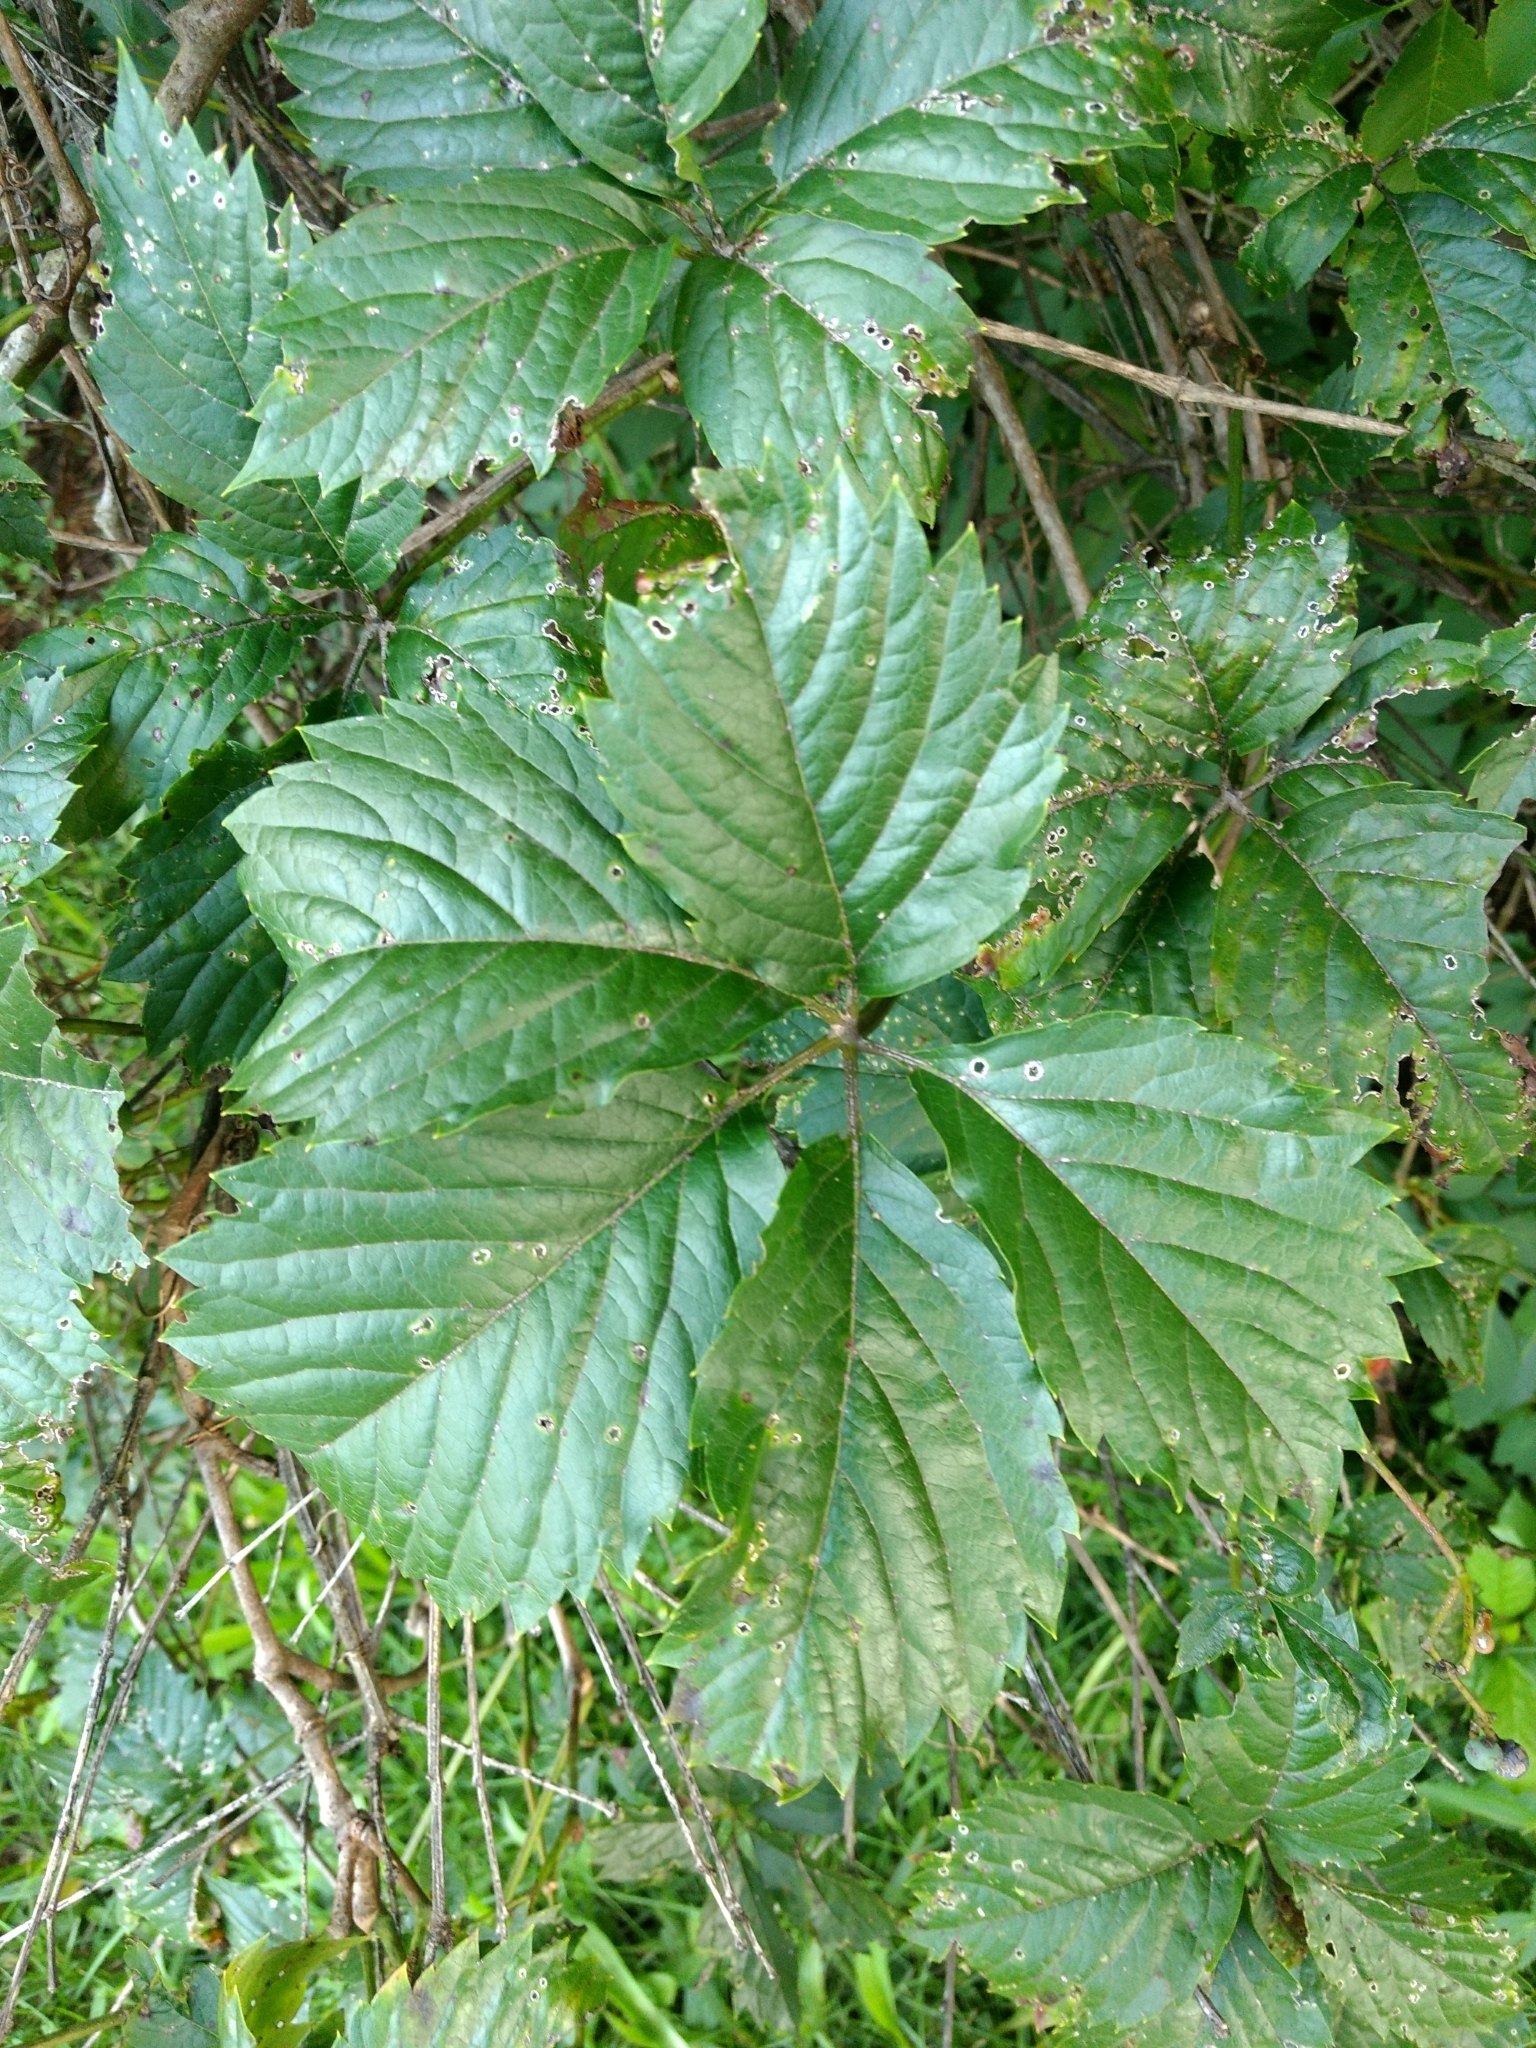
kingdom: Plantae
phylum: Tracheophyta
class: Magnoliopsida
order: Vitales
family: Vitaceae
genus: Parthenocissus
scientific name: Parthenocissus inserta
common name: False virginia-creeper
